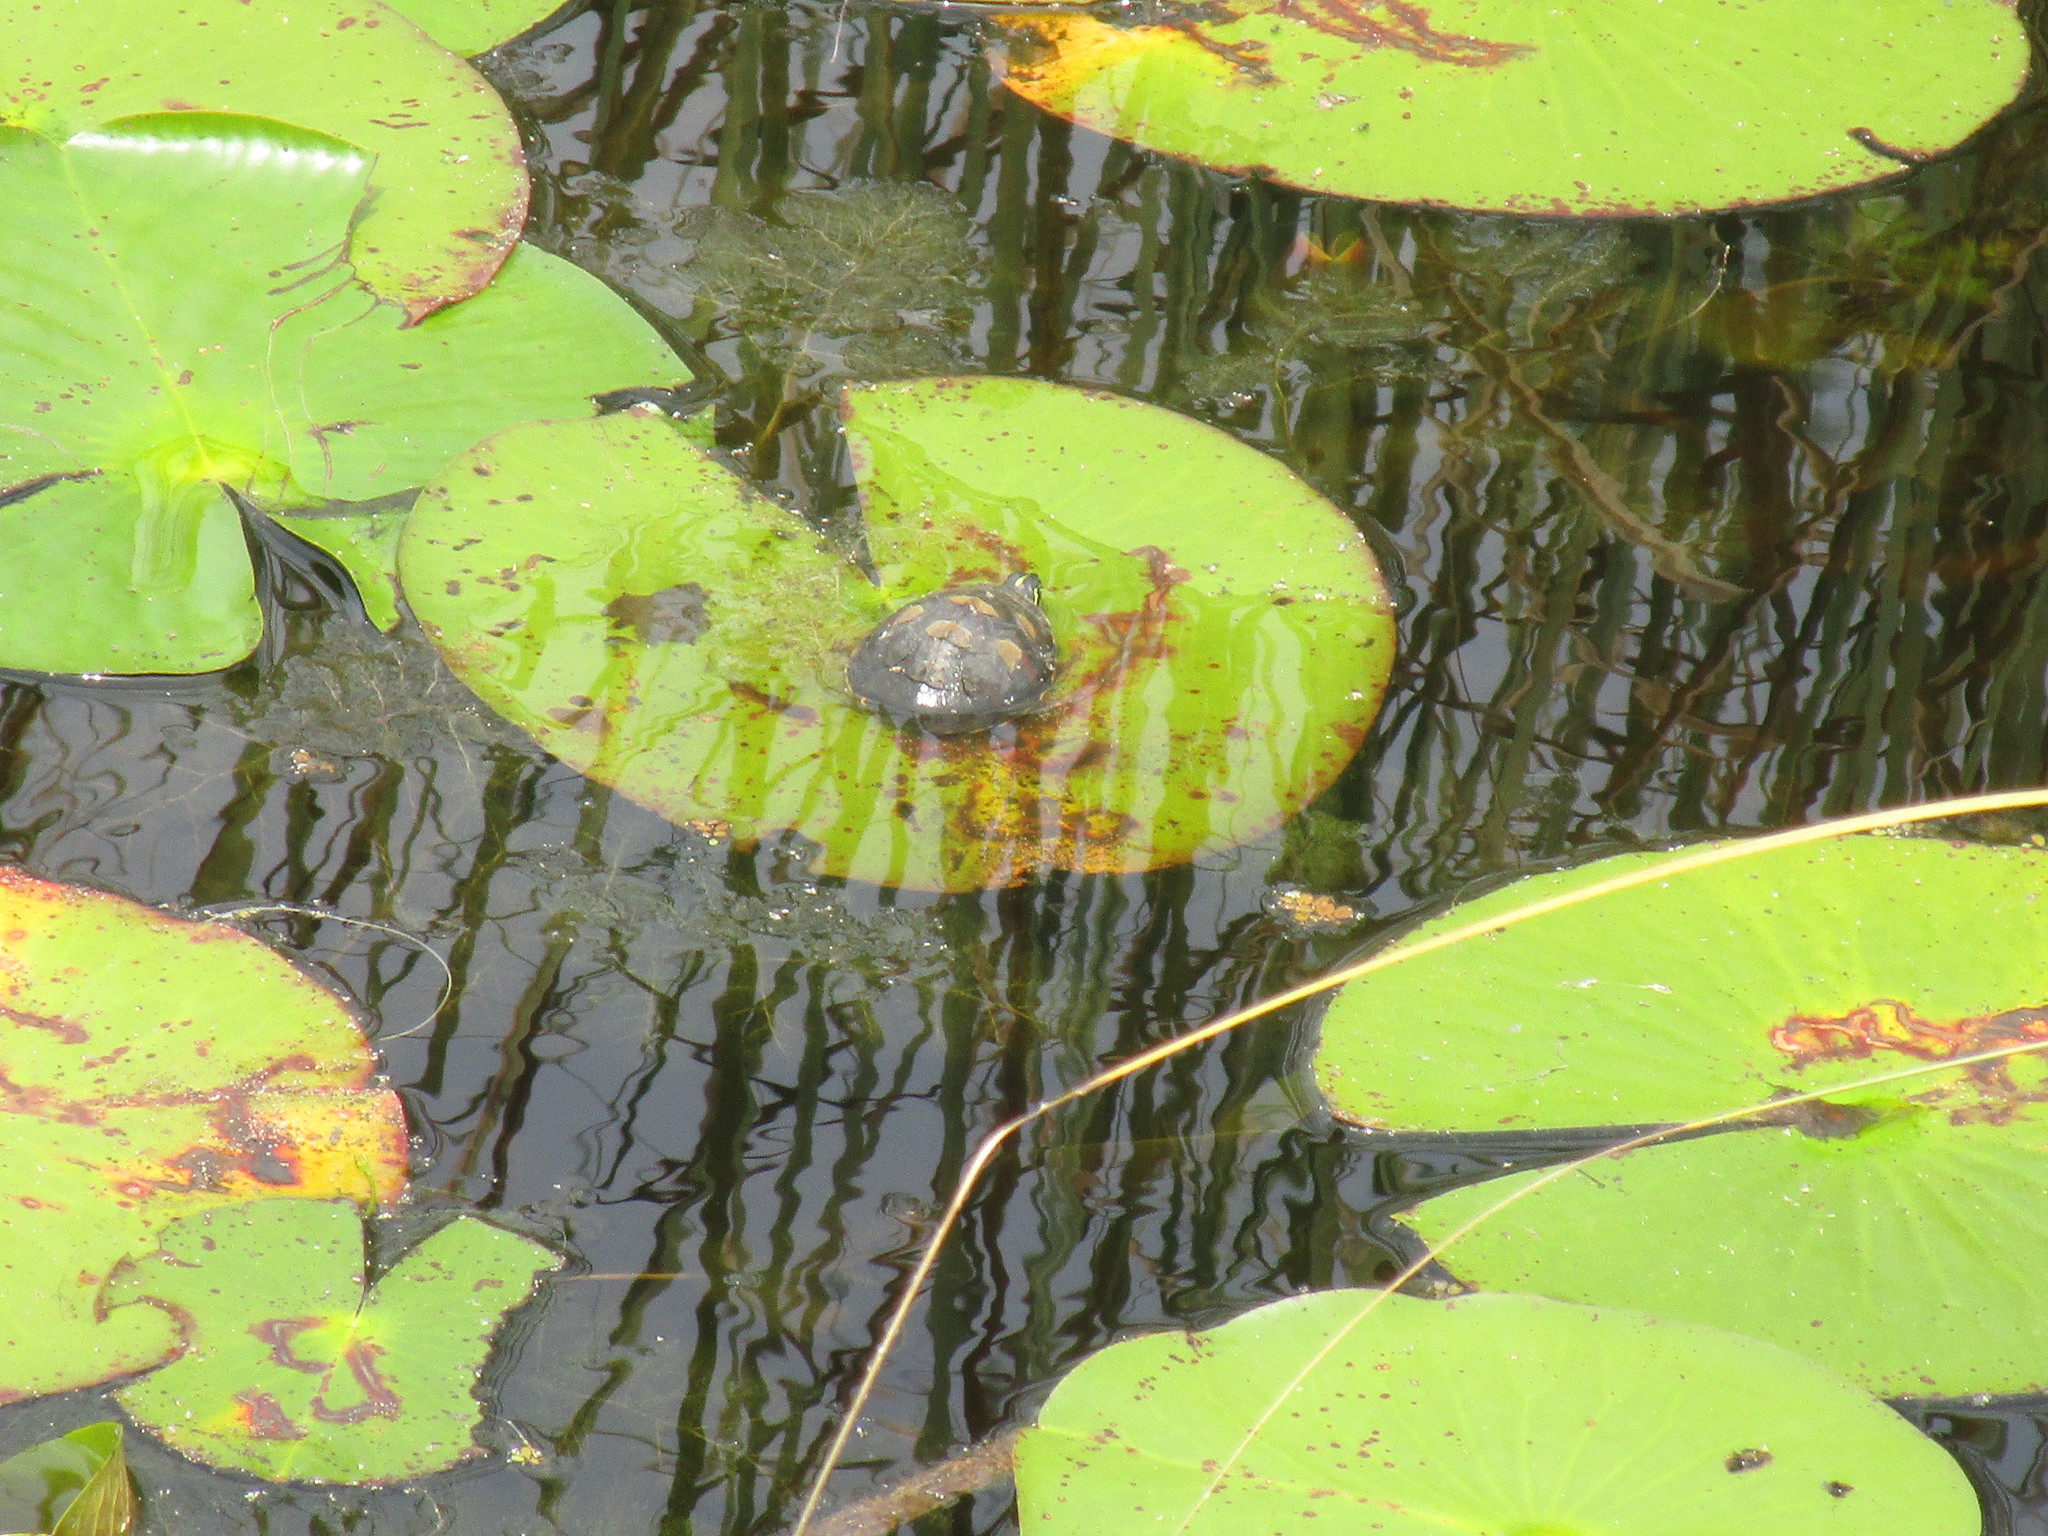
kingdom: Animalia
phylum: Chordata
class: Testudines
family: Emydidae
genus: Pseudemys
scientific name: Pseudemys nelsoni
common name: Florida red-bellied turtle
